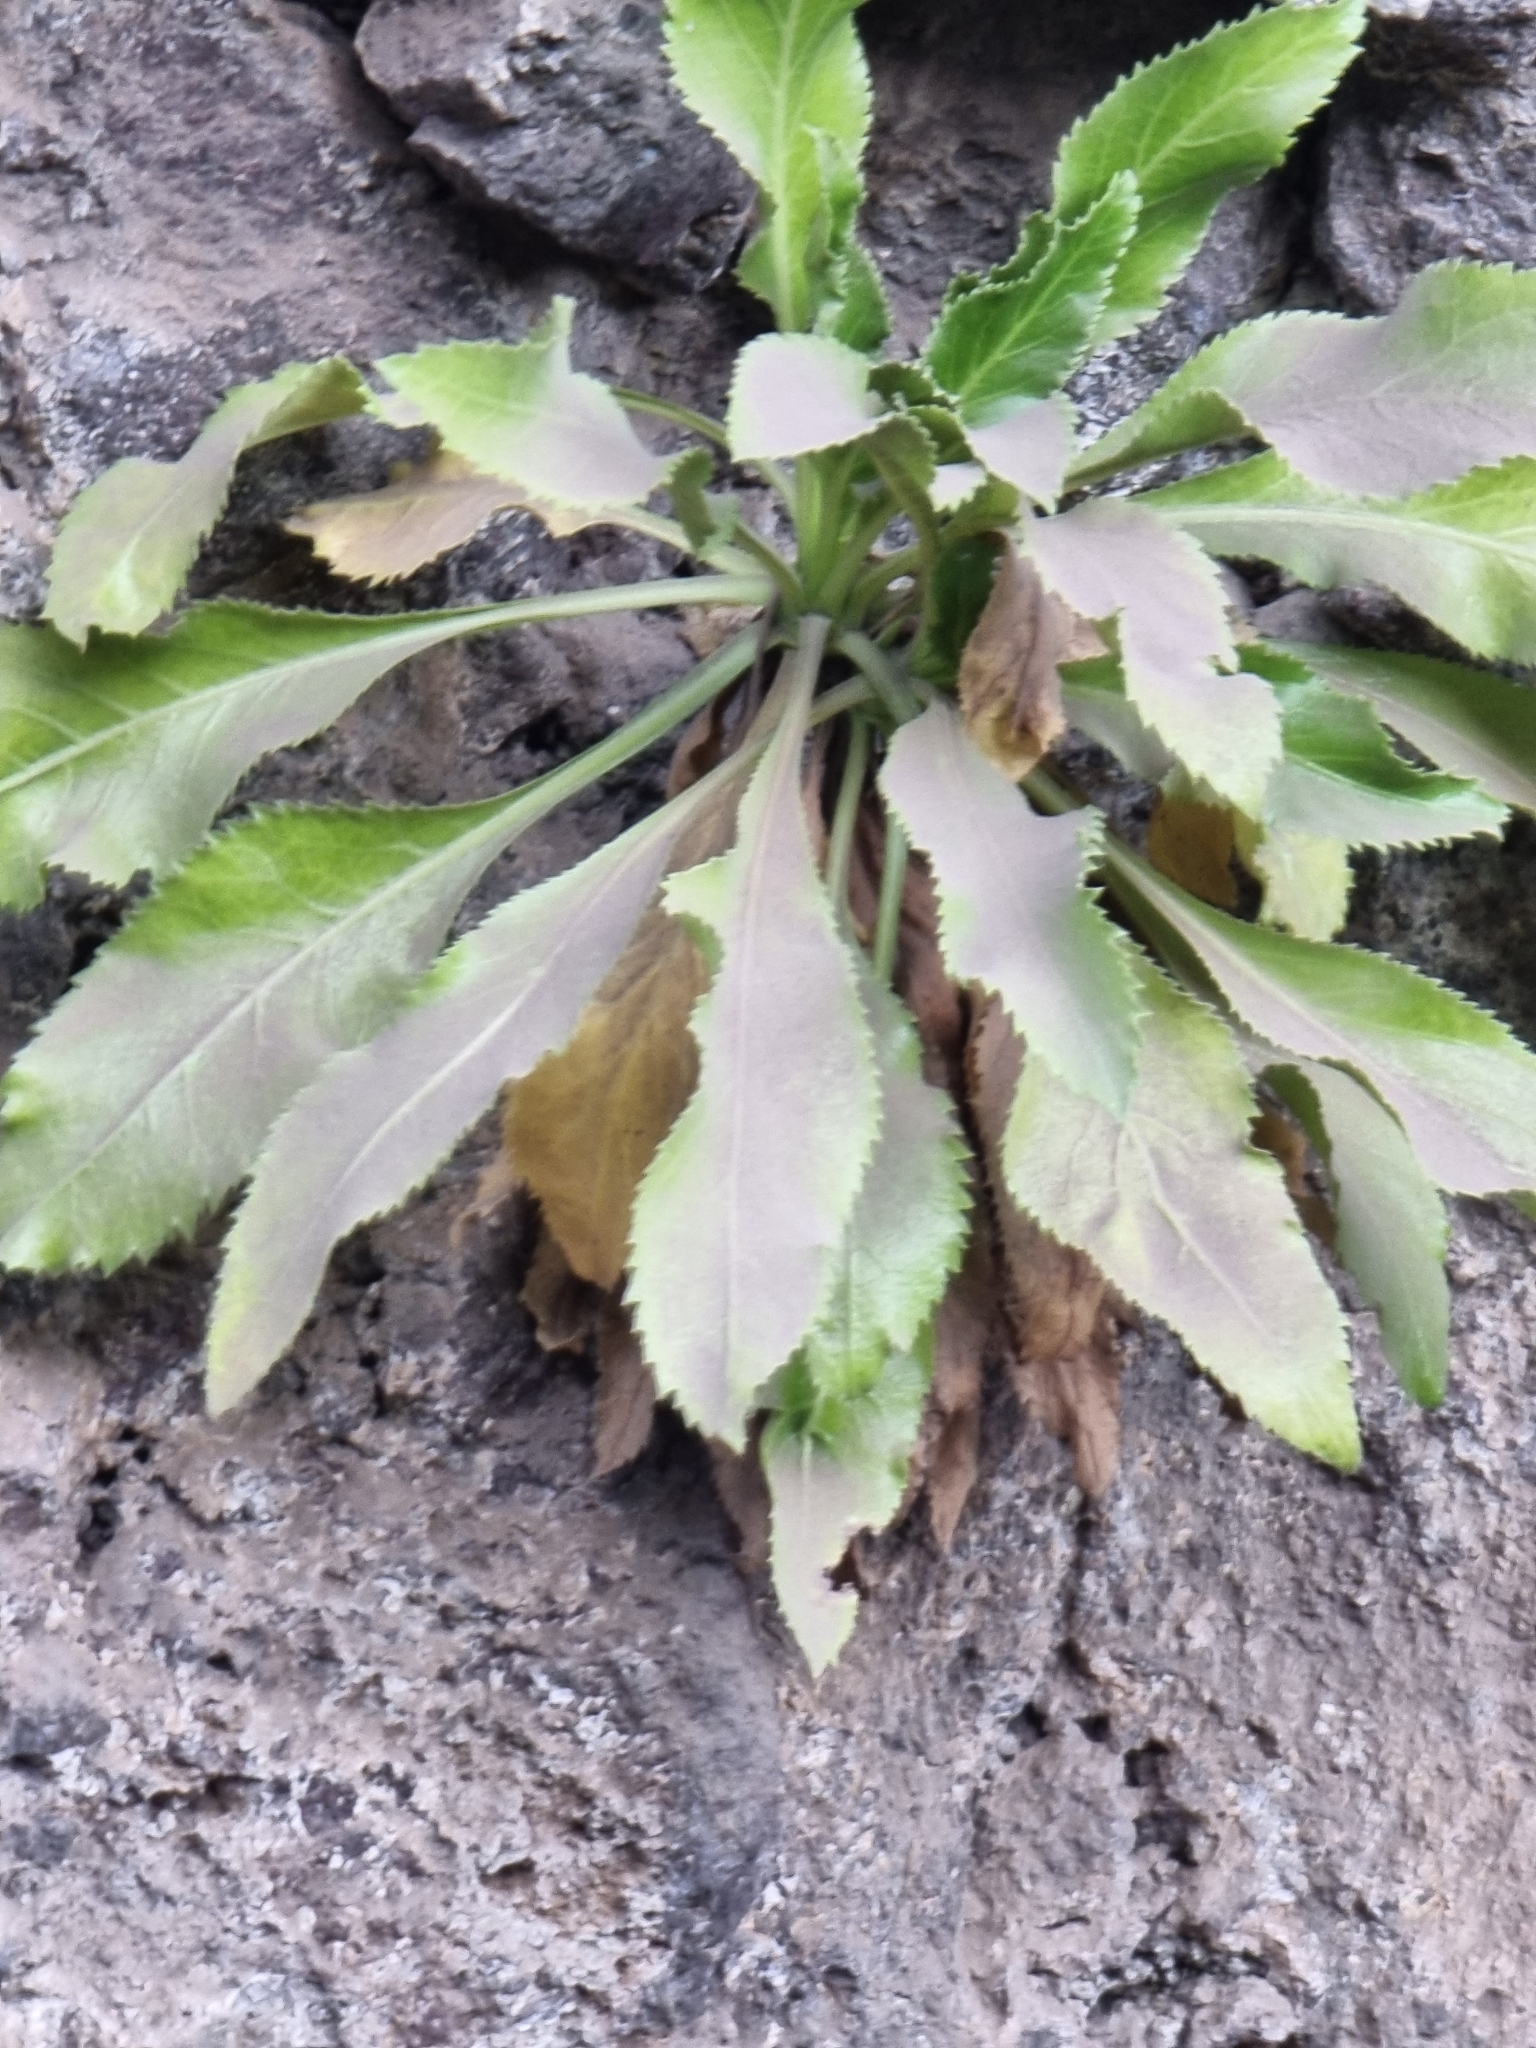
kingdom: Plantae
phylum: Tracheophyta
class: Magnoliopsida
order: Asterales
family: Campanulaceae
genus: Musschia
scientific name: Musschia aurea
